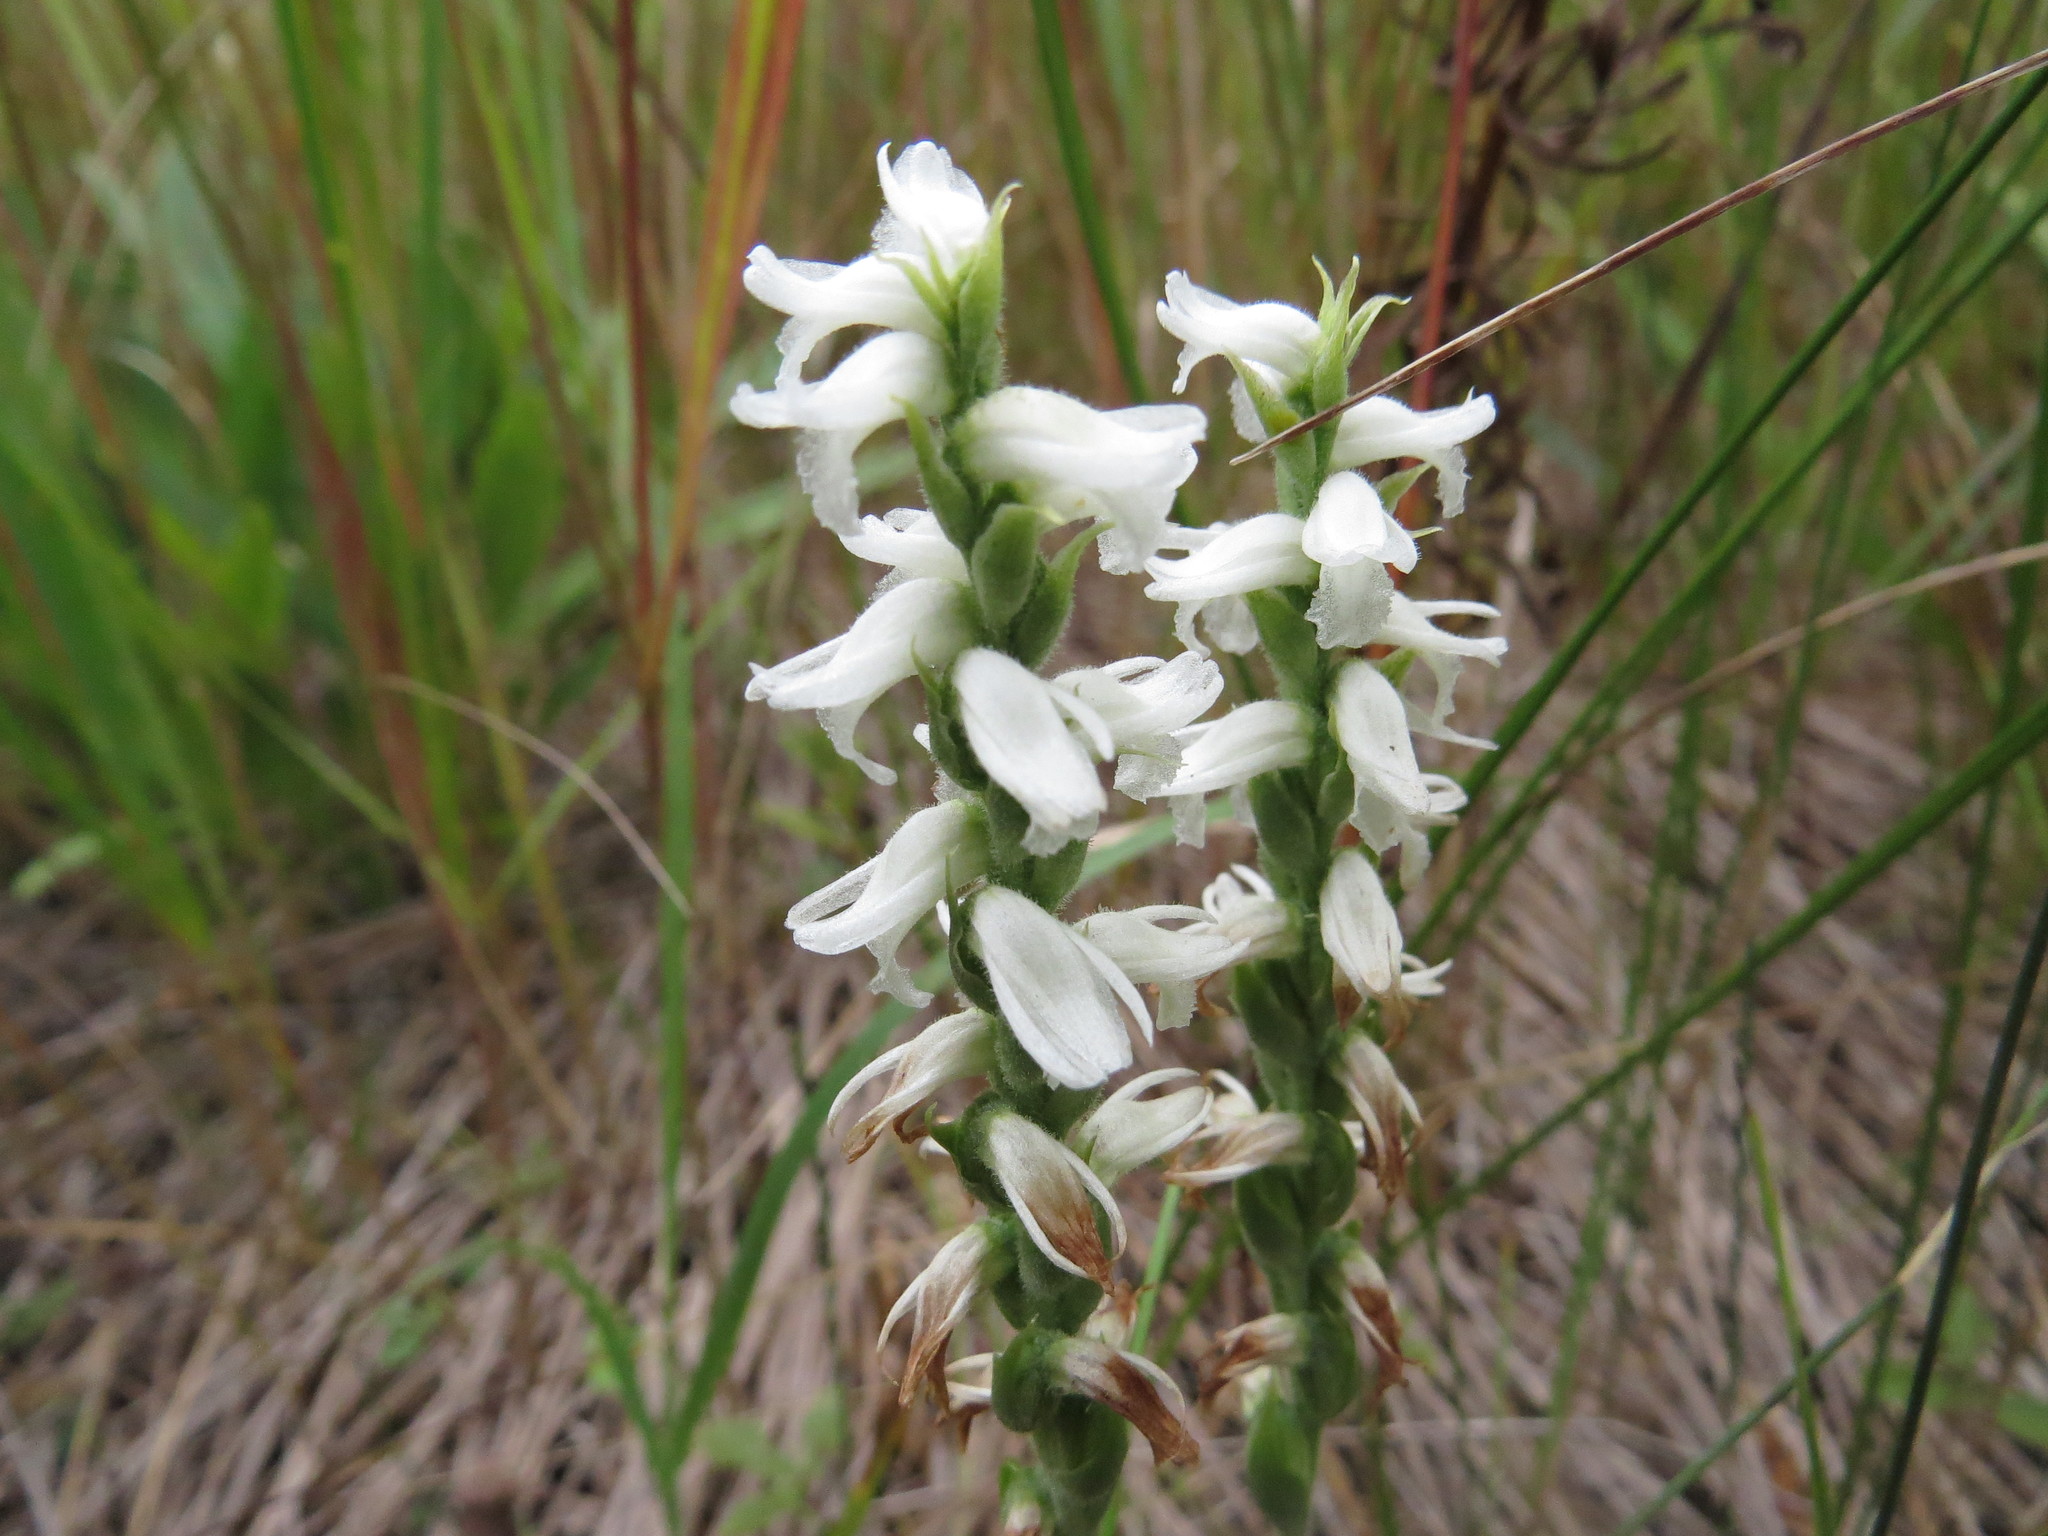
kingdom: Plantae
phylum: Tracheophyta
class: Liliopsida
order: Asparagales
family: Orchidaceae
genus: Spiranthes
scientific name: Spiranthes incurva
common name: Sphinx ladies'-tresses
